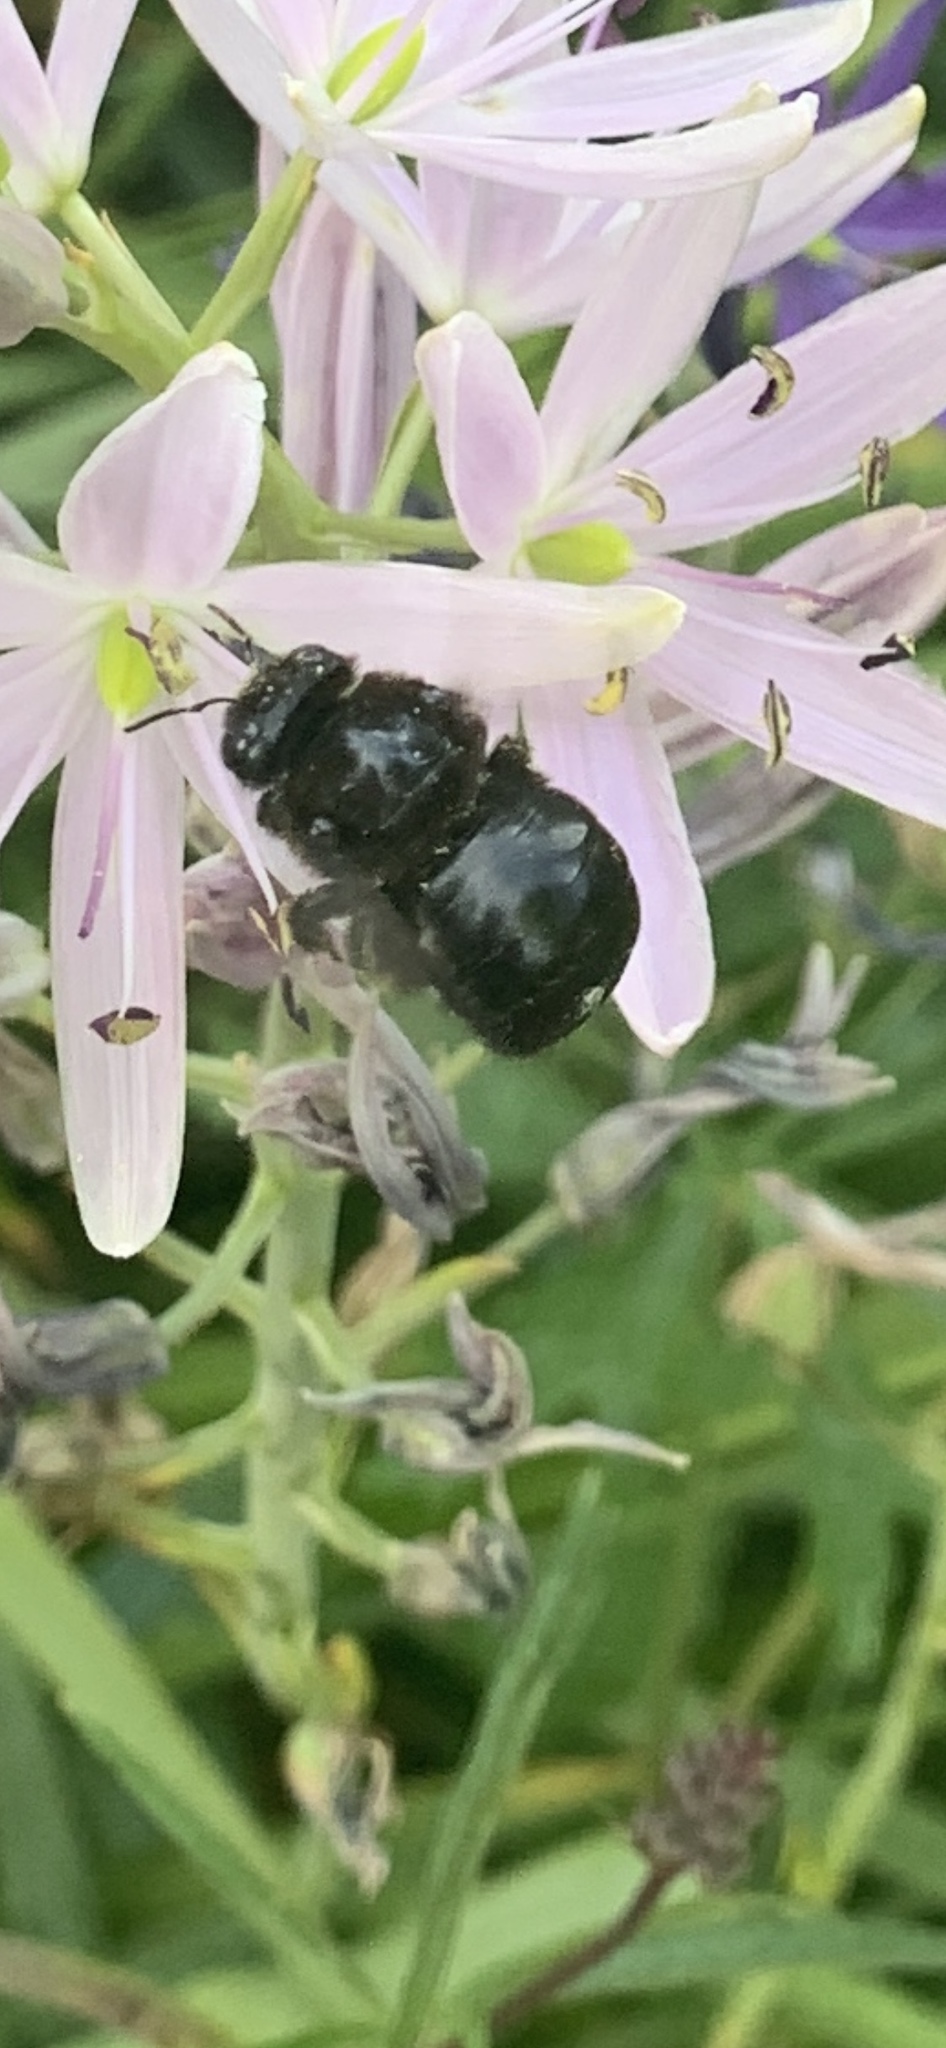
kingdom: Animalia
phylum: Arthropoda
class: Insecta
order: Hymenoptera
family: Apidae
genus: Xylocopa
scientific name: Xylocopa tabaniformis
